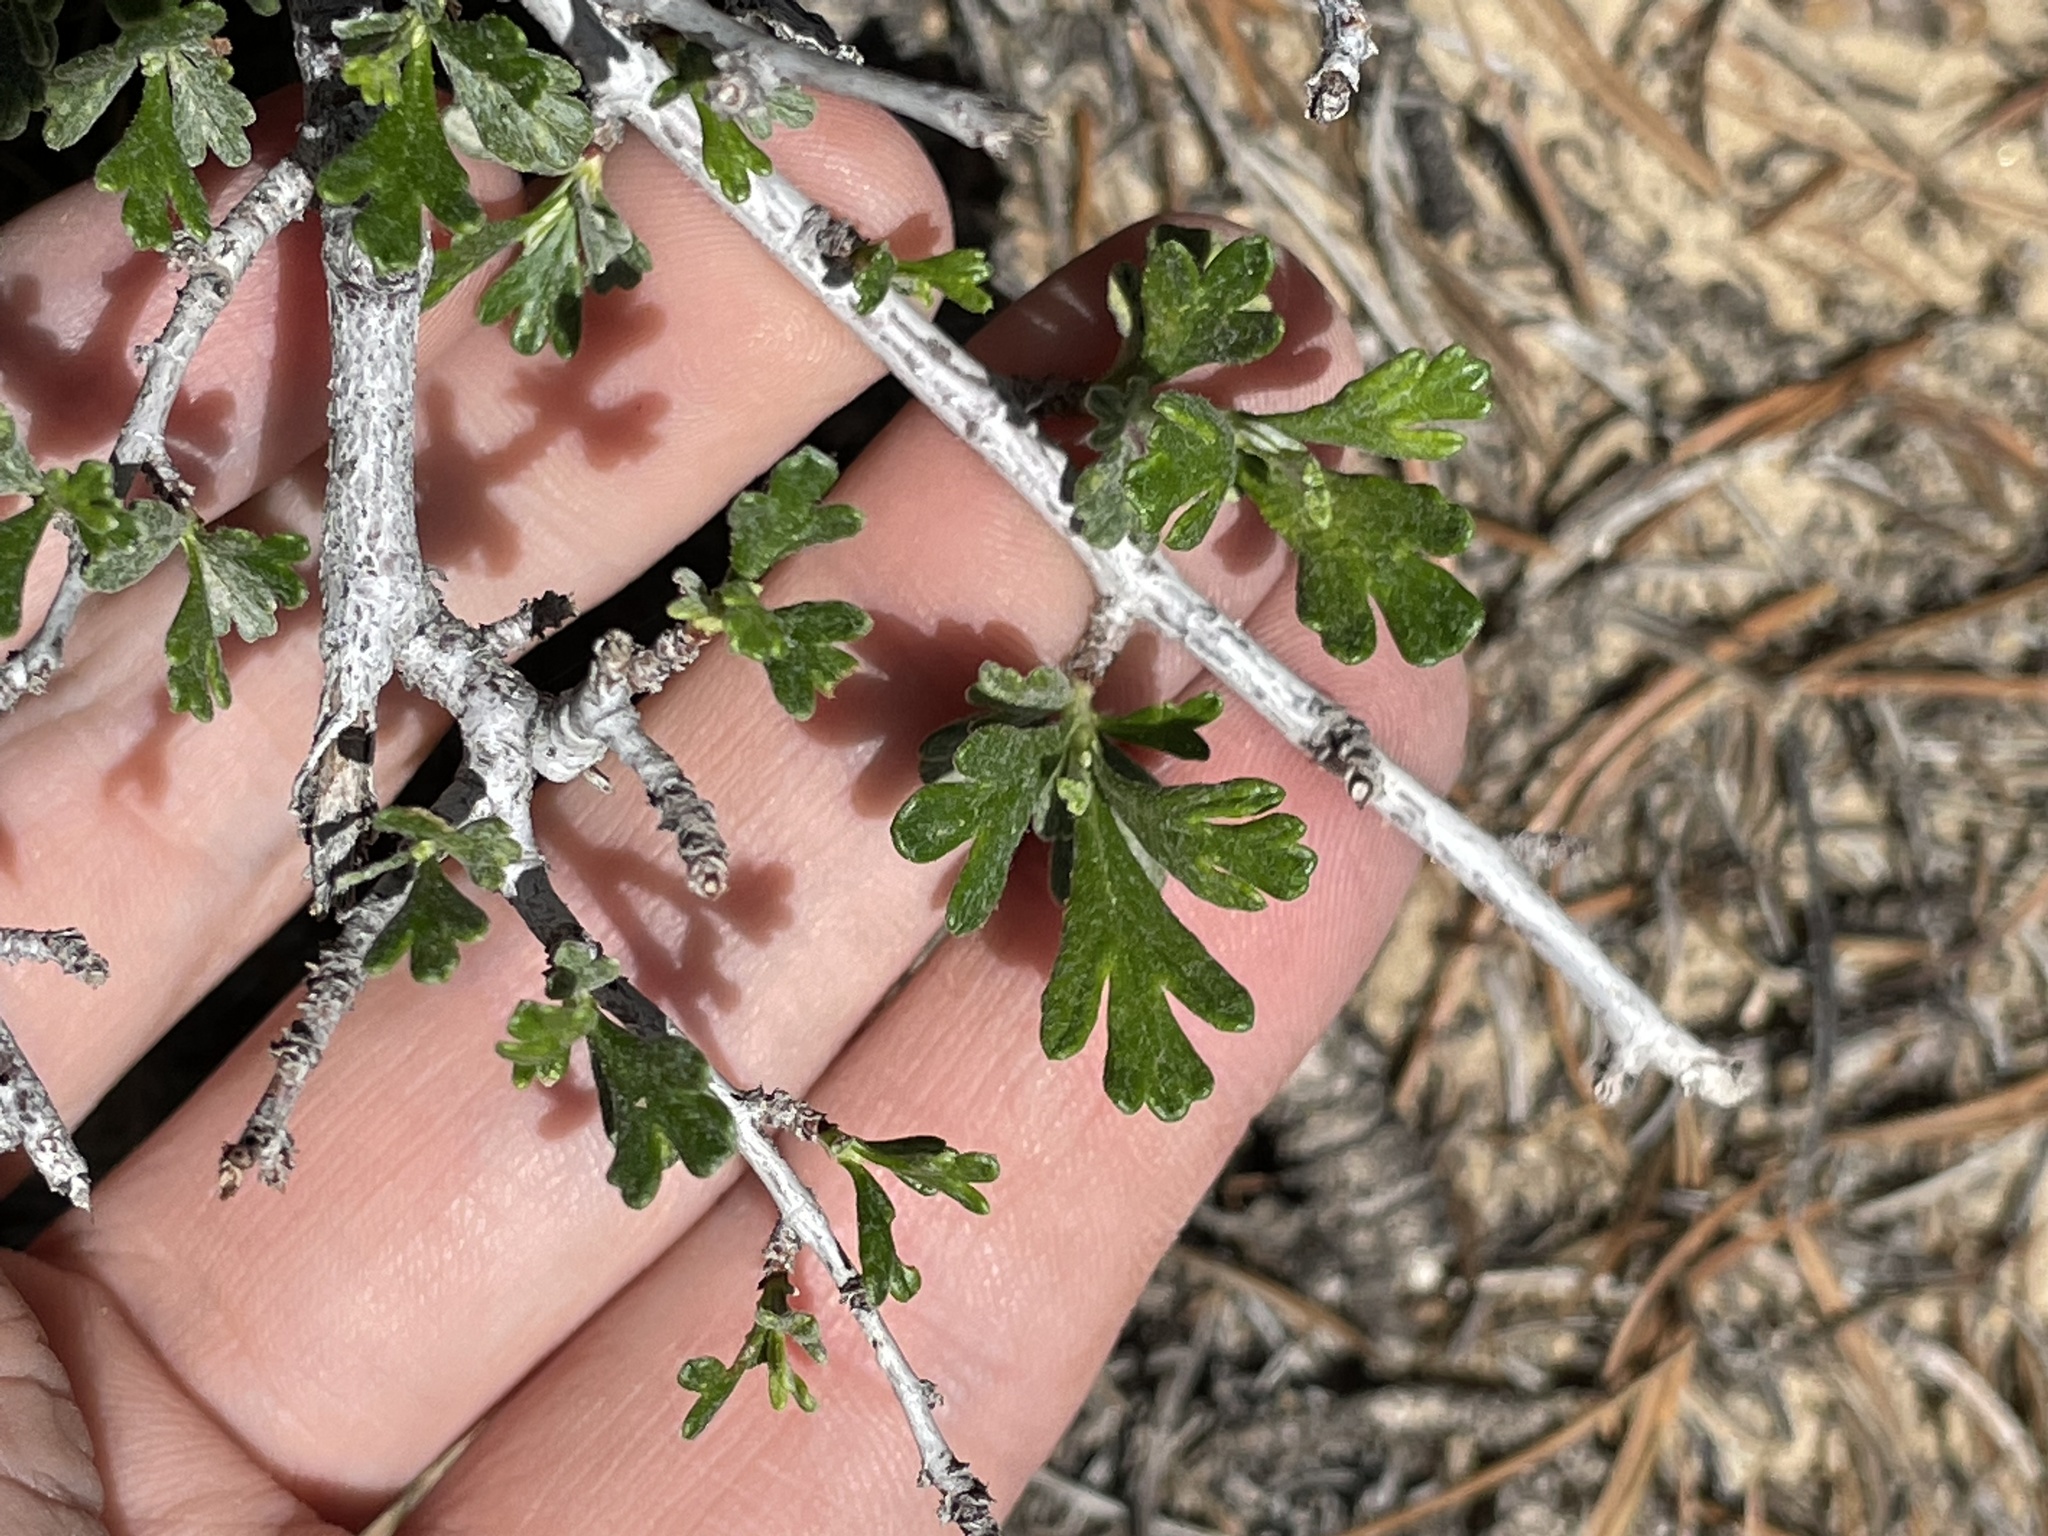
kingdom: Plantae
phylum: Tracheophyta
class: Magnoliopsida
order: Rosales
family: Rosaceae
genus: Purshia
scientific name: Purshia tridentata
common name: Antelope bitterbrush
